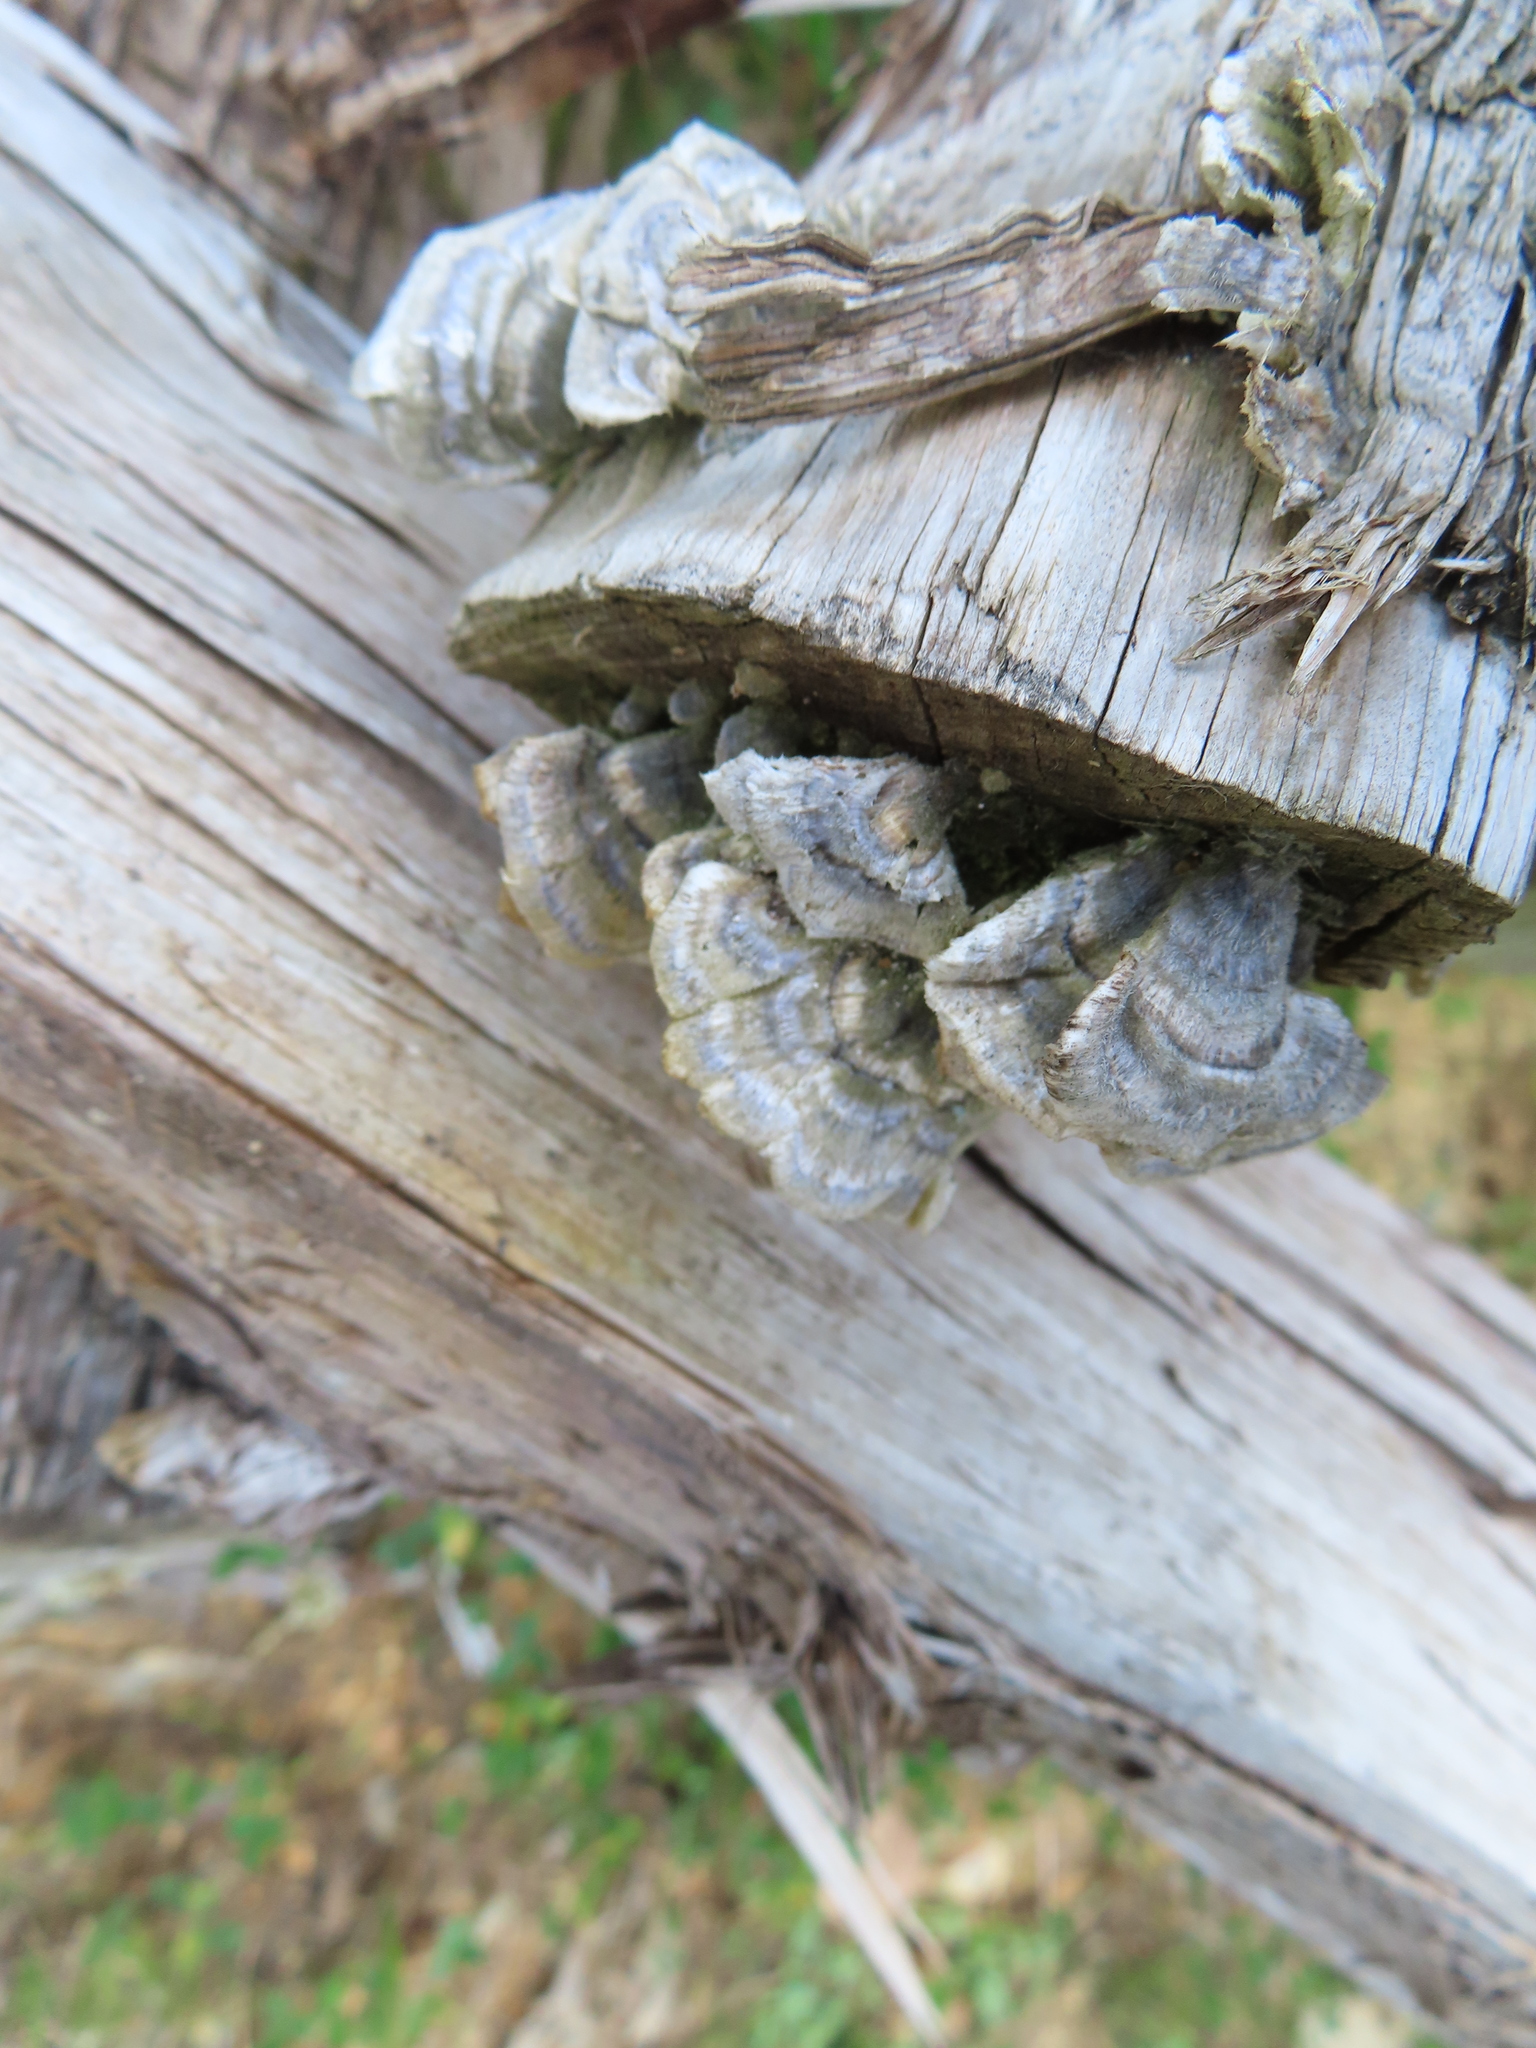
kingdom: Fungi
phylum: Basidiomycota
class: Agaricomycetes
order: Polyporales
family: Polyporaceae
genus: Trametes
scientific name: Trametes versicolor
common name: Turkeytail
